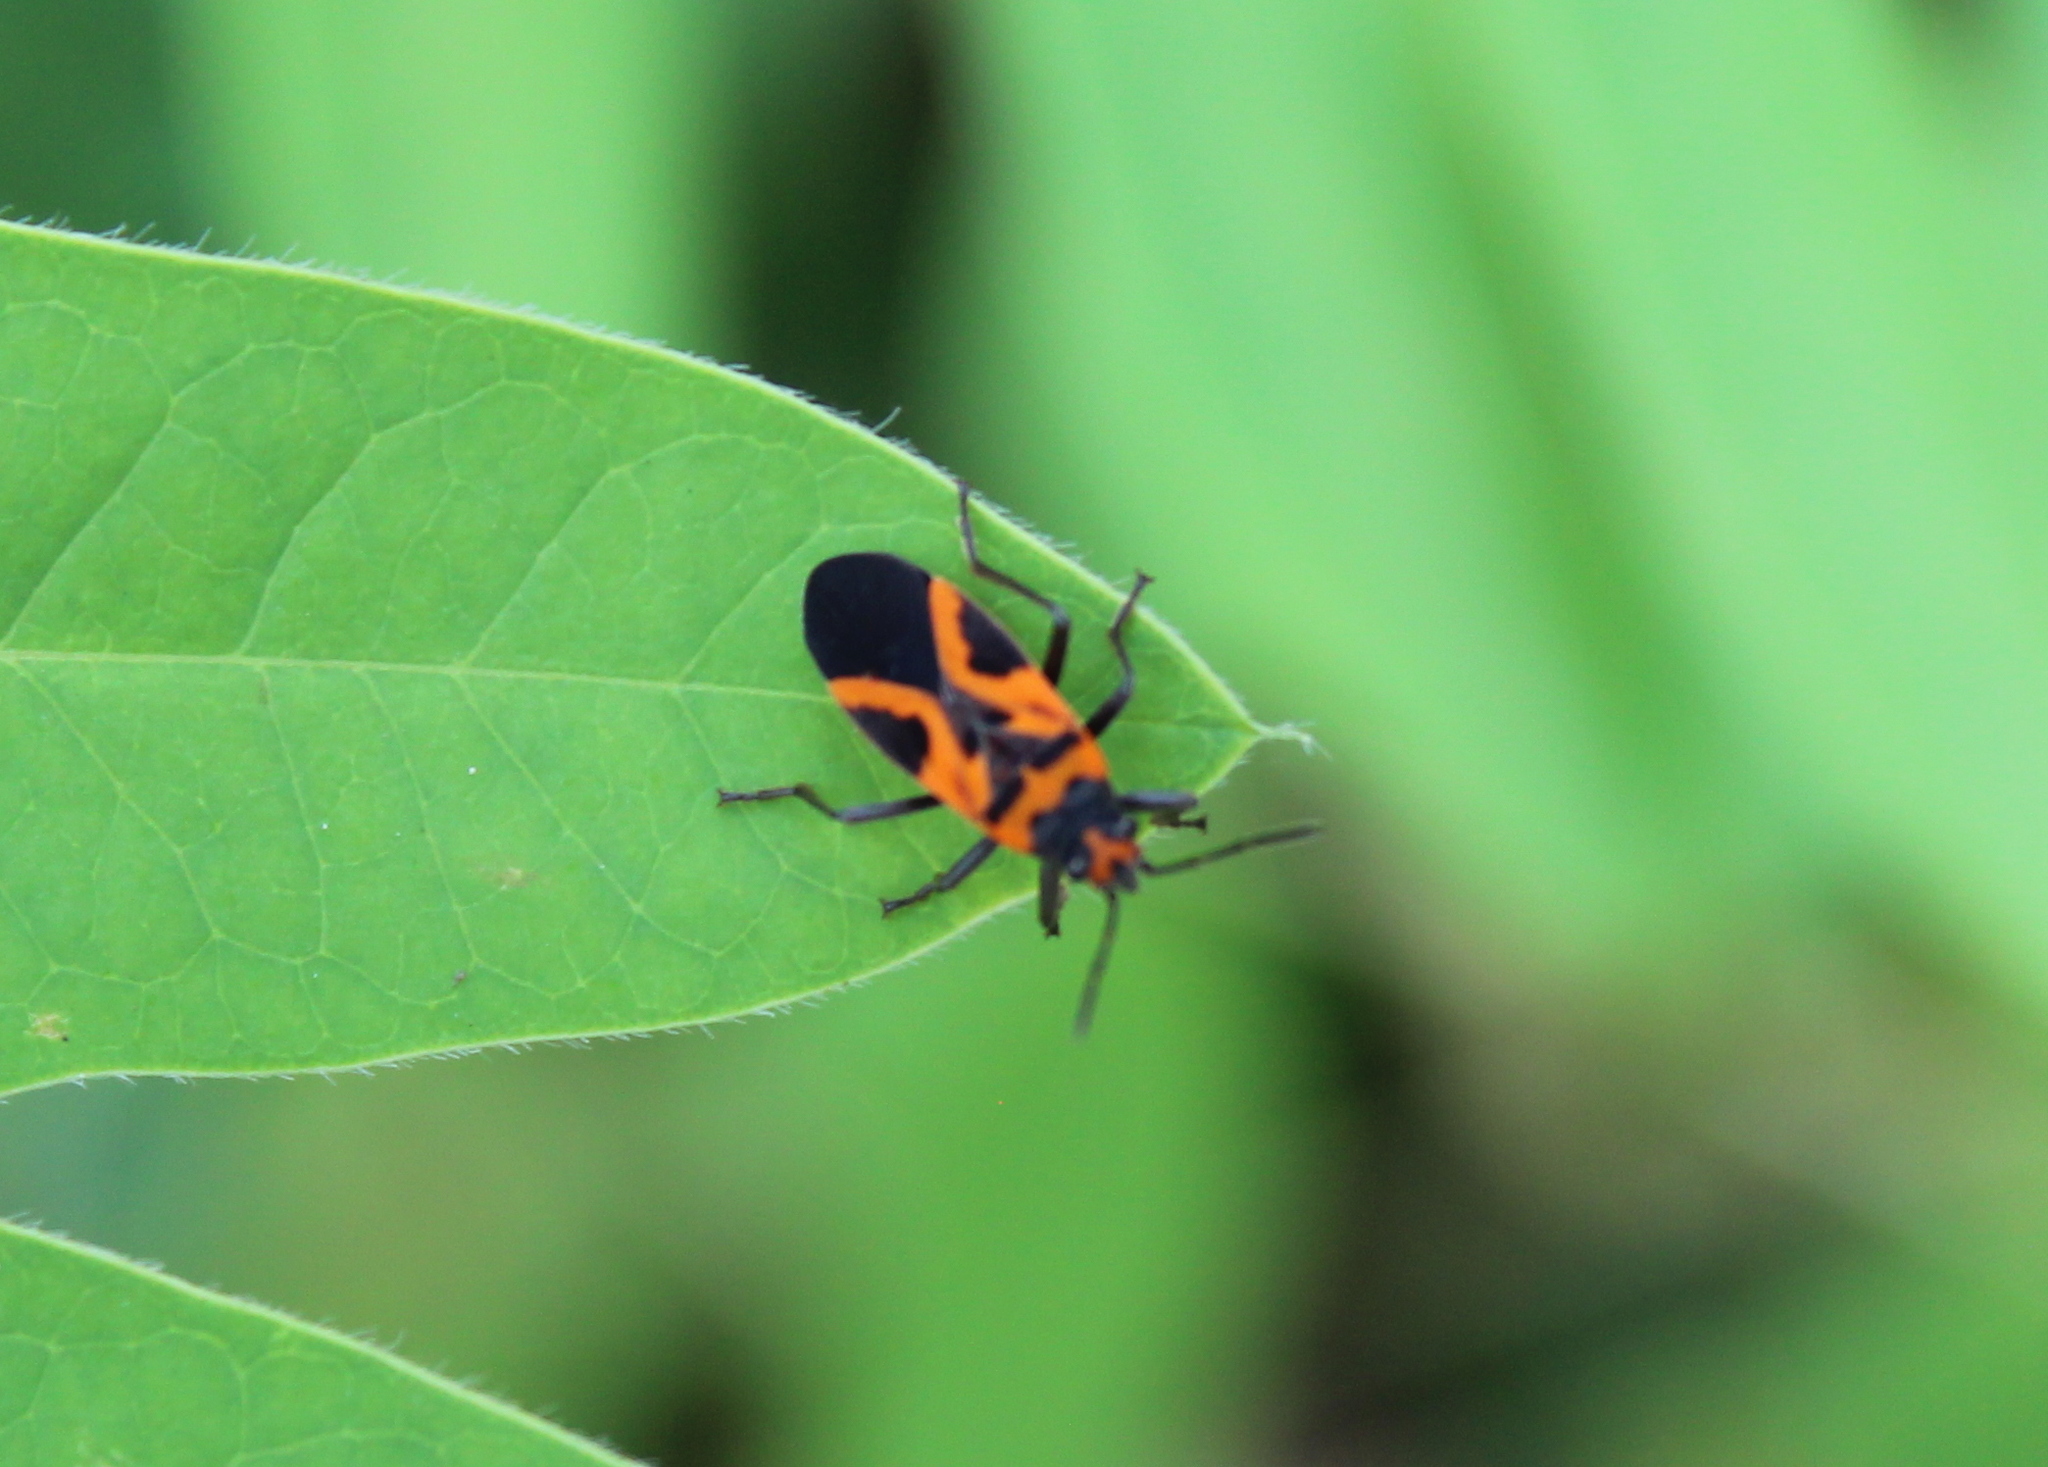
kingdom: Animalia
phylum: Arthropoda
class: Insecta
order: Hemiptera
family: Lygaeidae
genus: Lygaeus
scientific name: Lygaeus turcicus
